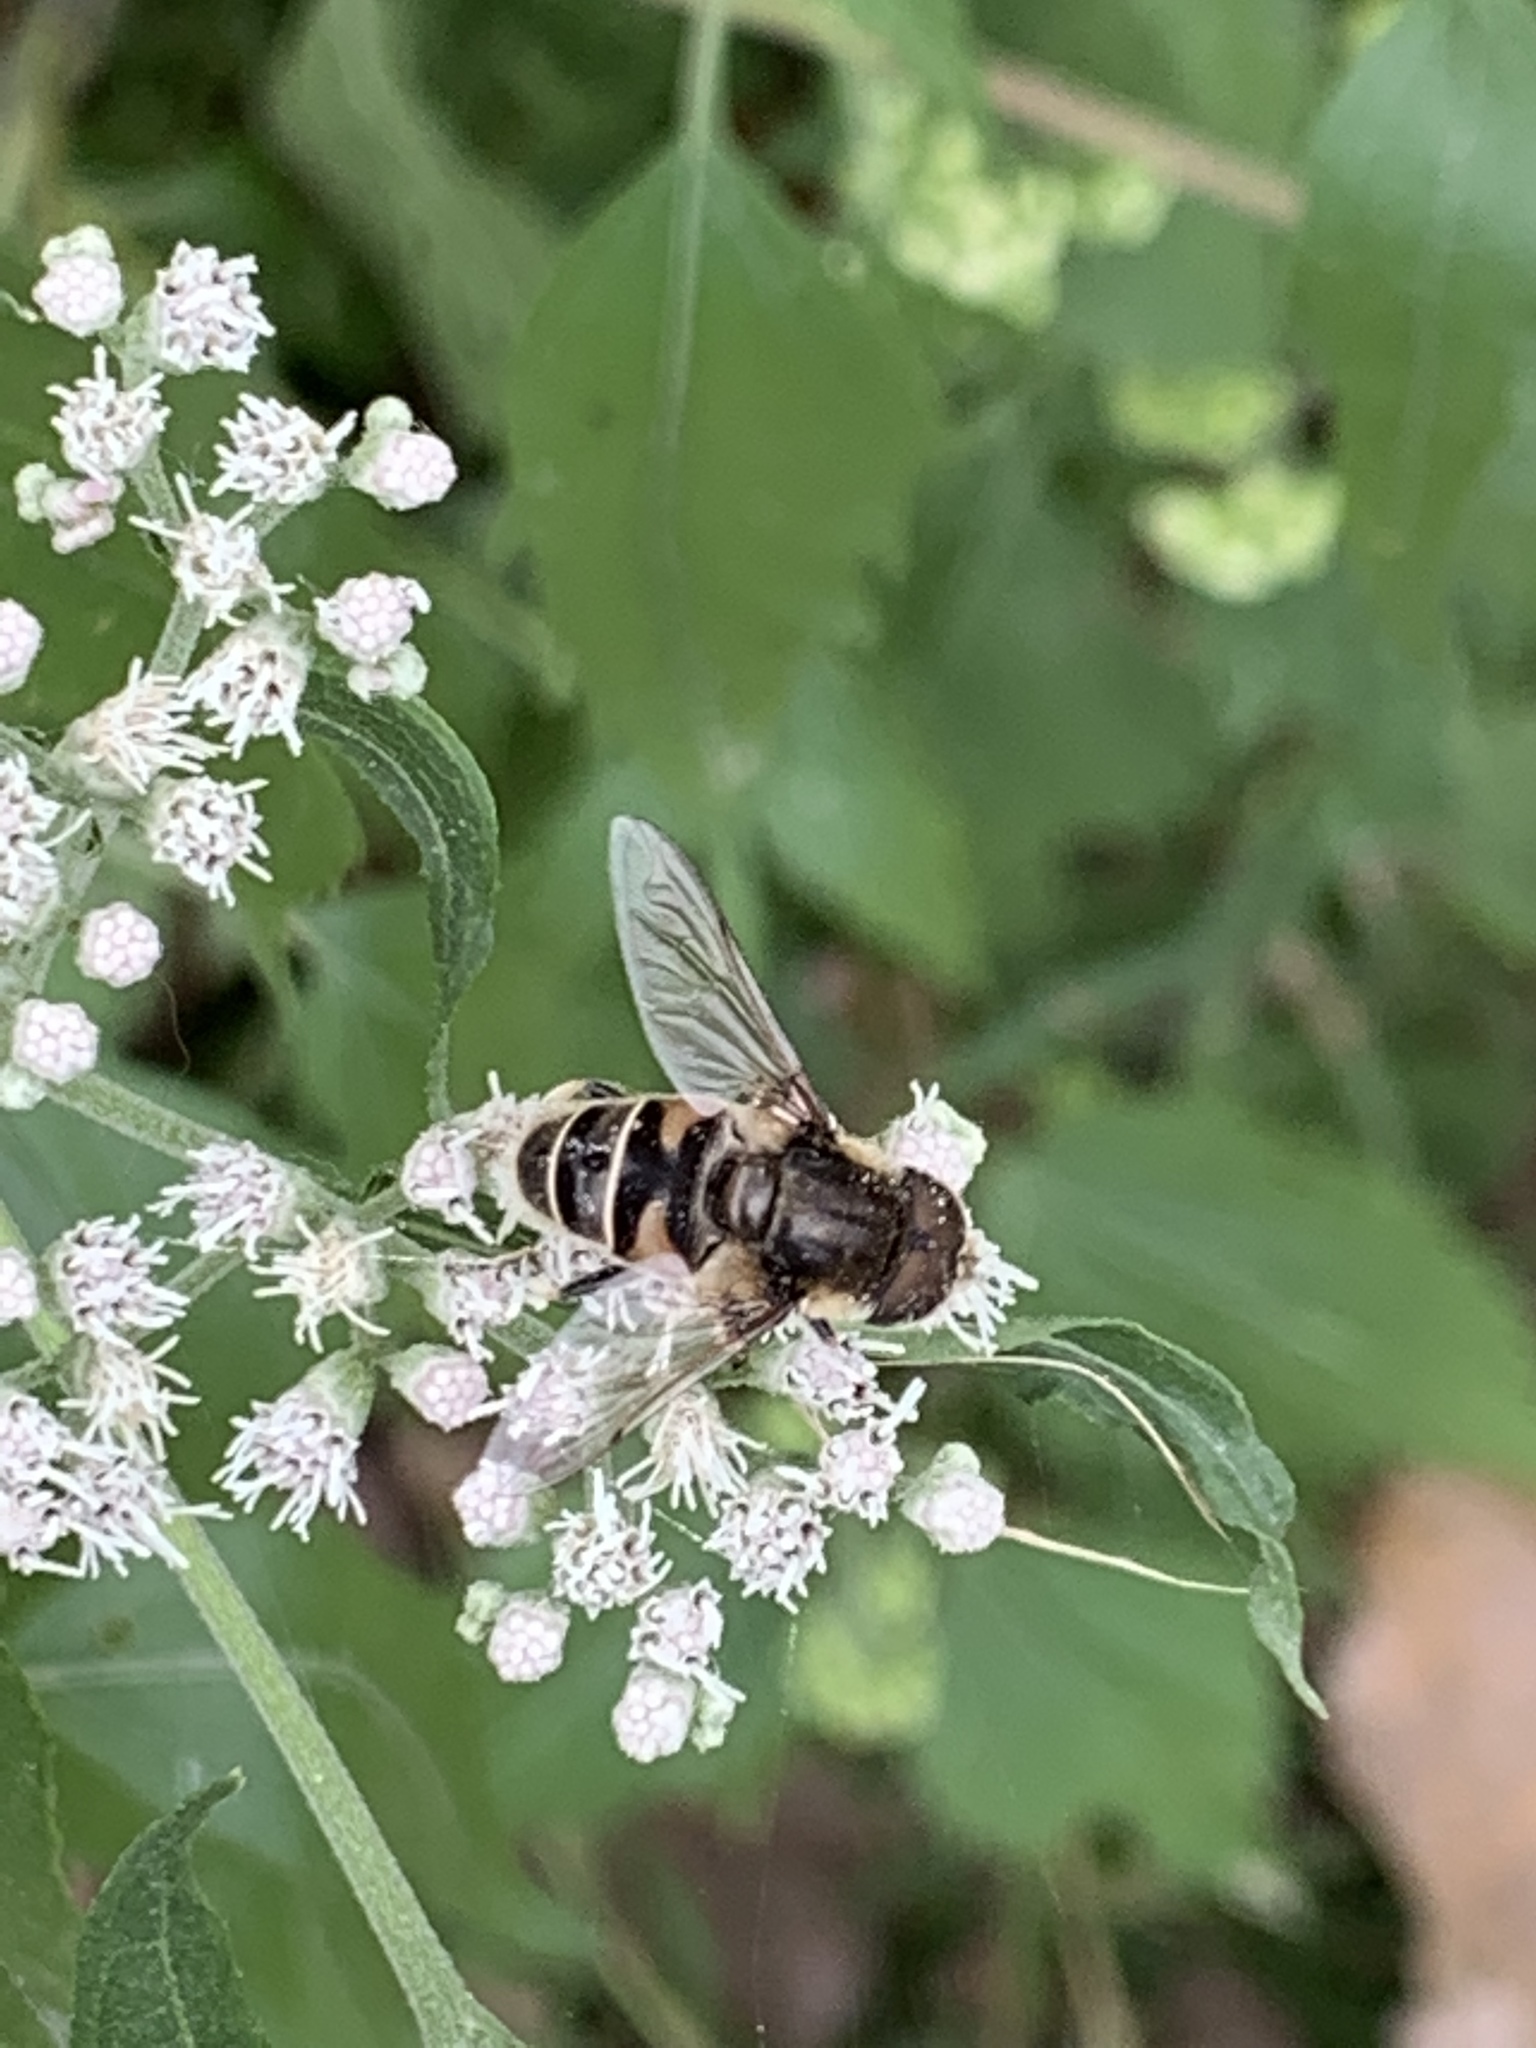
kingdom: Animalia
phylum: Arthropoda
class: Insecta
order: Diptera
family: Syrphidae
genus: Eristalis
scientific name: Eristalis dimidiata
